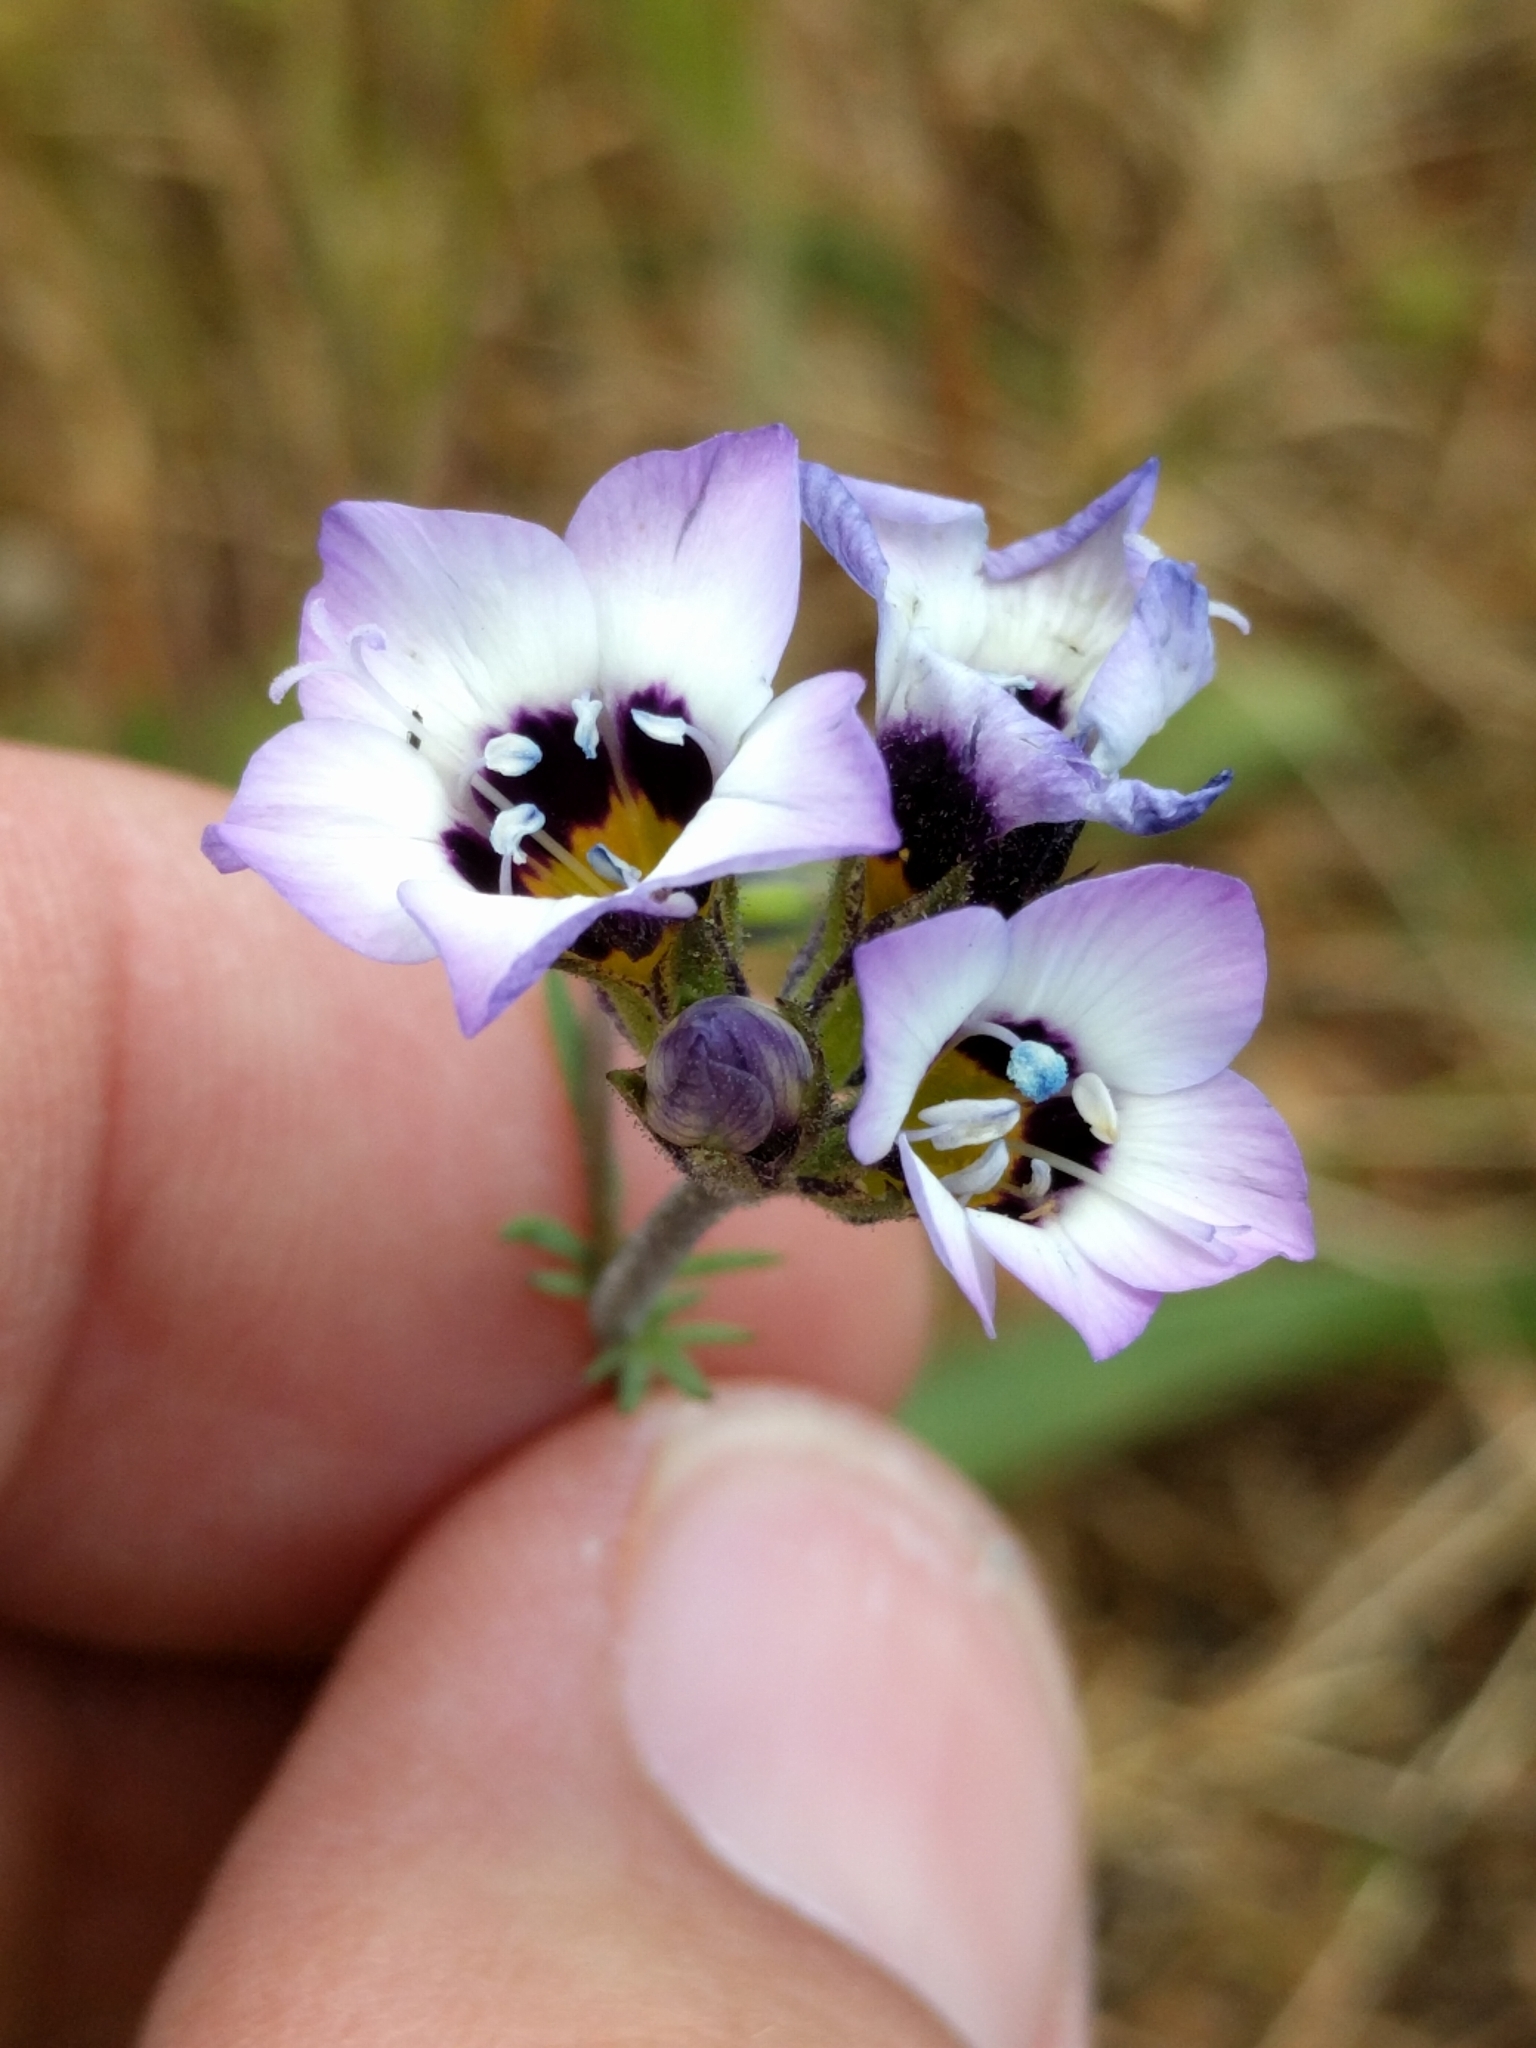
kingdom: Plantae
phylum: Tracheophyta
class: Magnoliopsida
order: Ericales
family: Polemoniaceae
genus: Gilia
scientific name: Gilia tricolor
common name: Bird's-eyes
